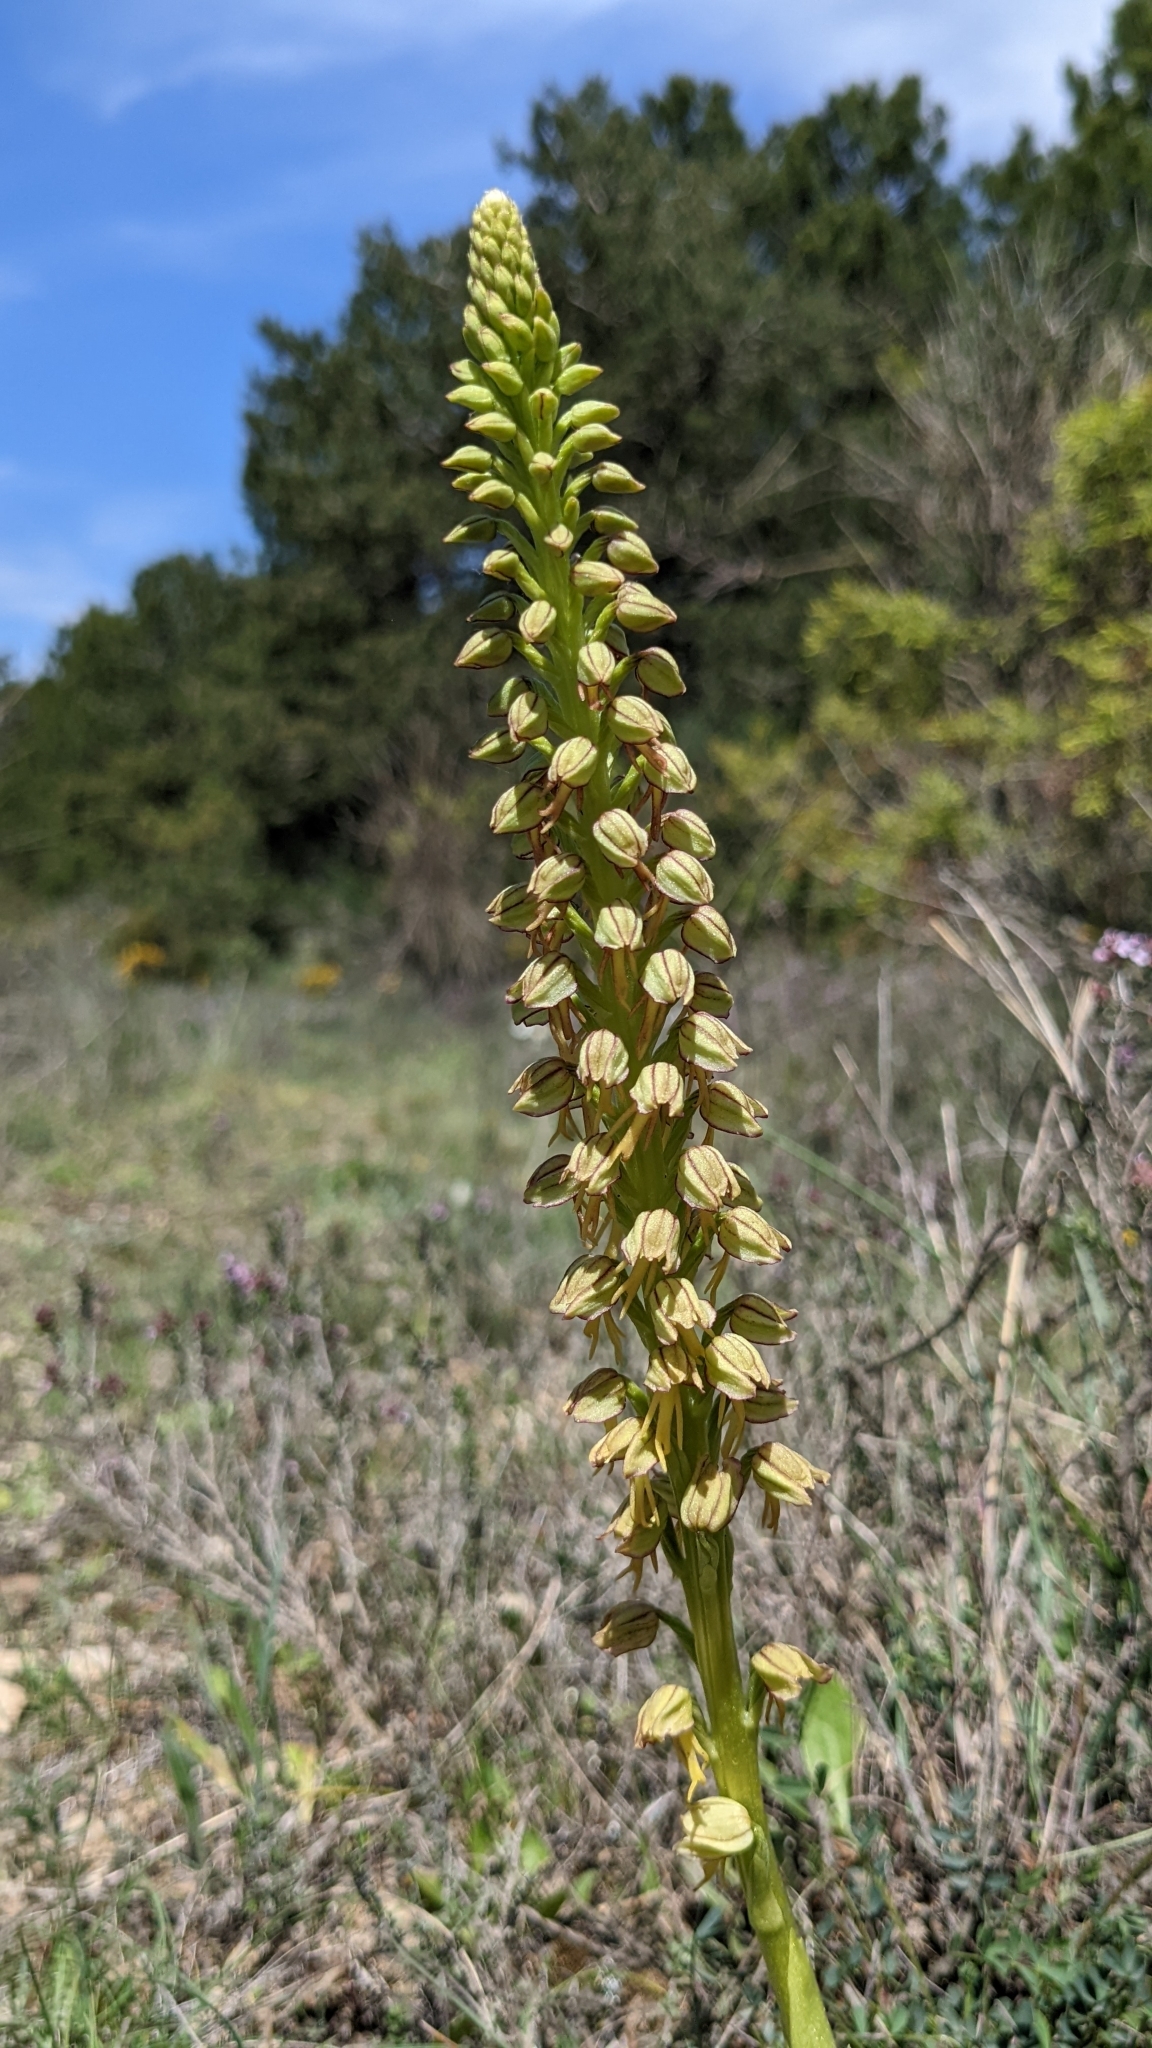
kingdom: Plantae
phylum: Tracheophyta
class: Liliopsida
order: Asparagales
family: Orchidaceae
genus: Orchis
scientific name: Orchis anthropophora
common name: Man orchid
